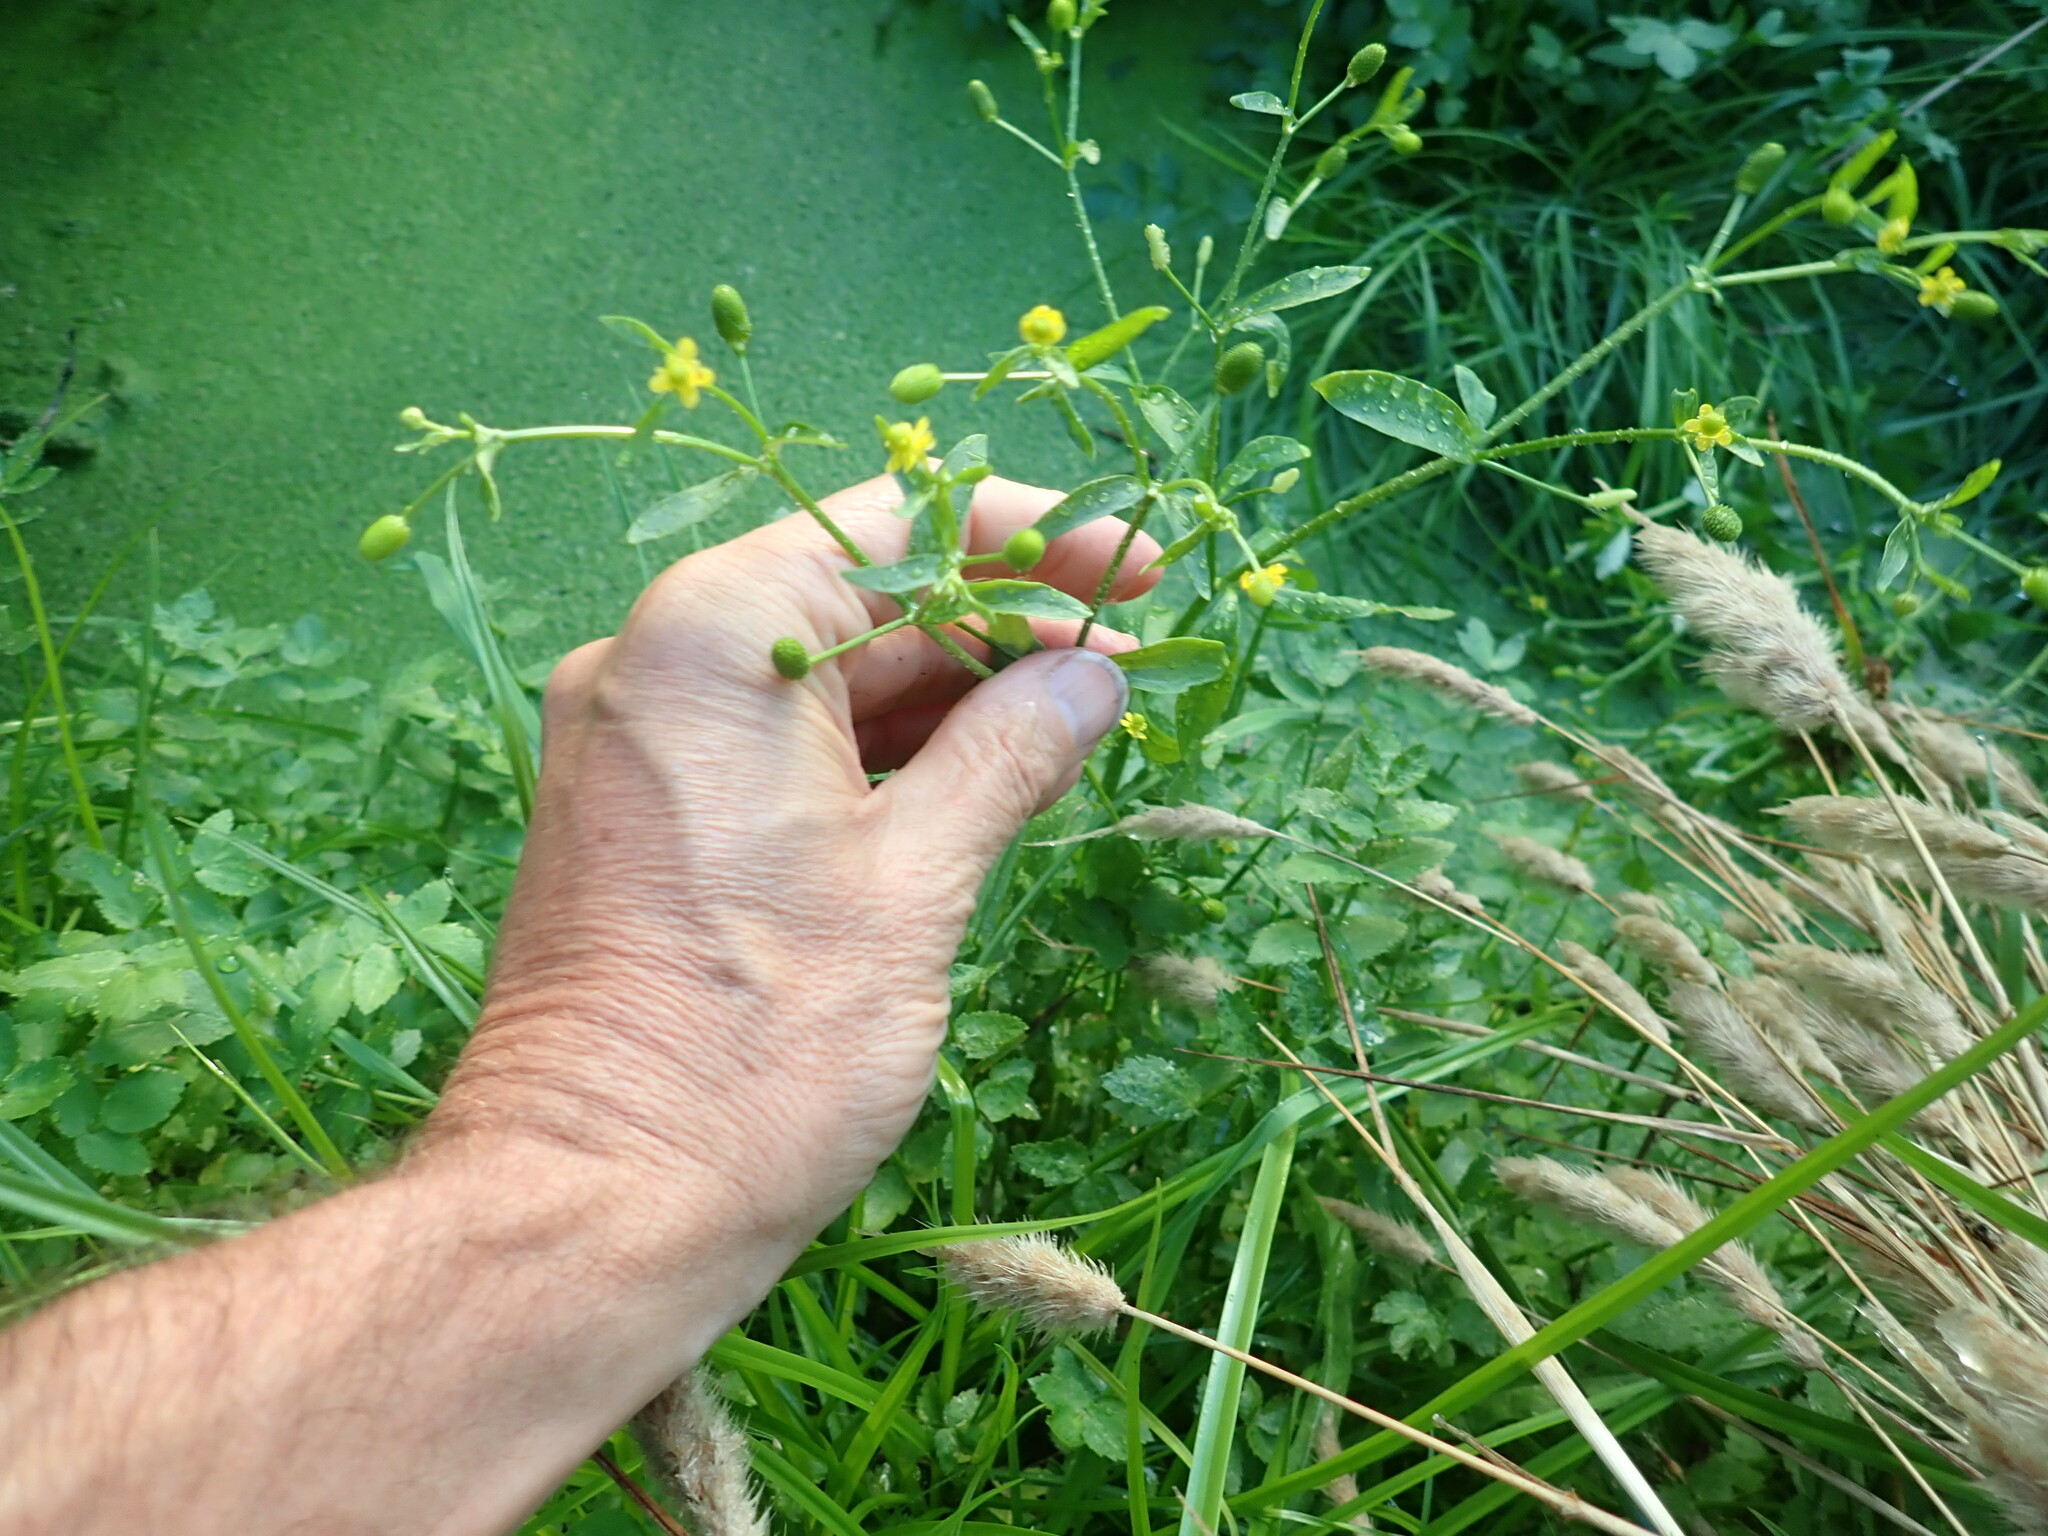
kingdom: Plantae
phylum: Tracheophyta
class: Magnoliopsida
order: Ranunculales
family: Ranunculaceae
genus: Ranunculus
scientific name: Ranunculus sceleratus
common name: Celery-leaved buttercup
